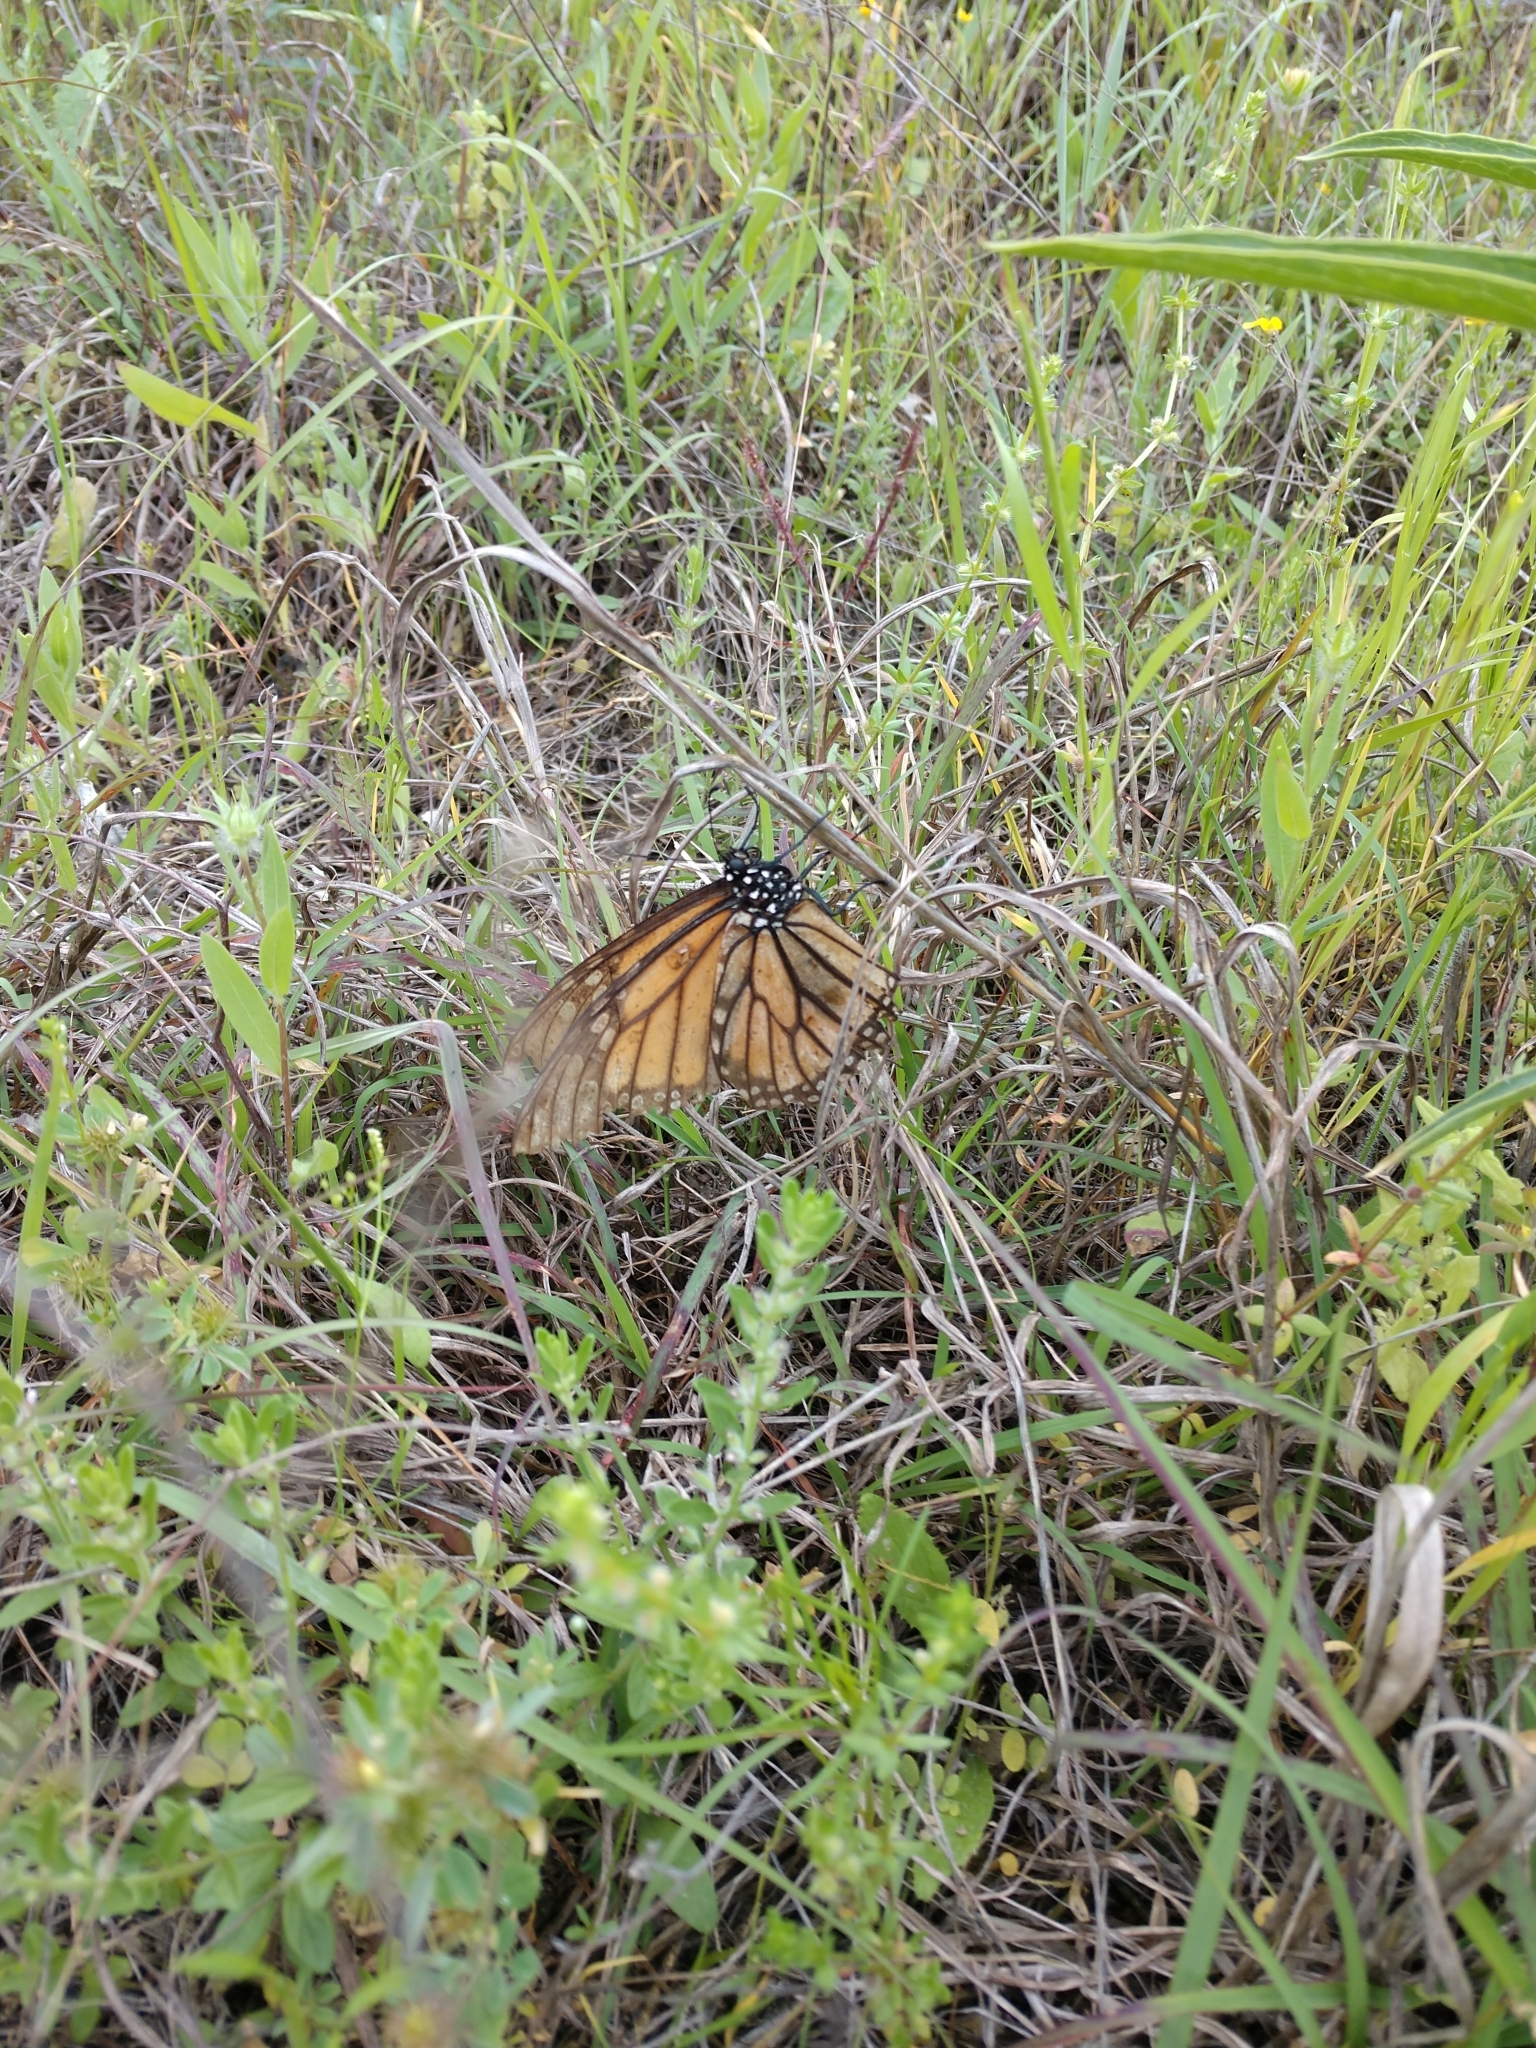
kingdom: Animalia
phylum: Arthropoda
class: Insecta
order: Lepidoptera
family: Nymphalidae
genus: Danaus
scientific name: Danaus plexippus
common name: Monarch
